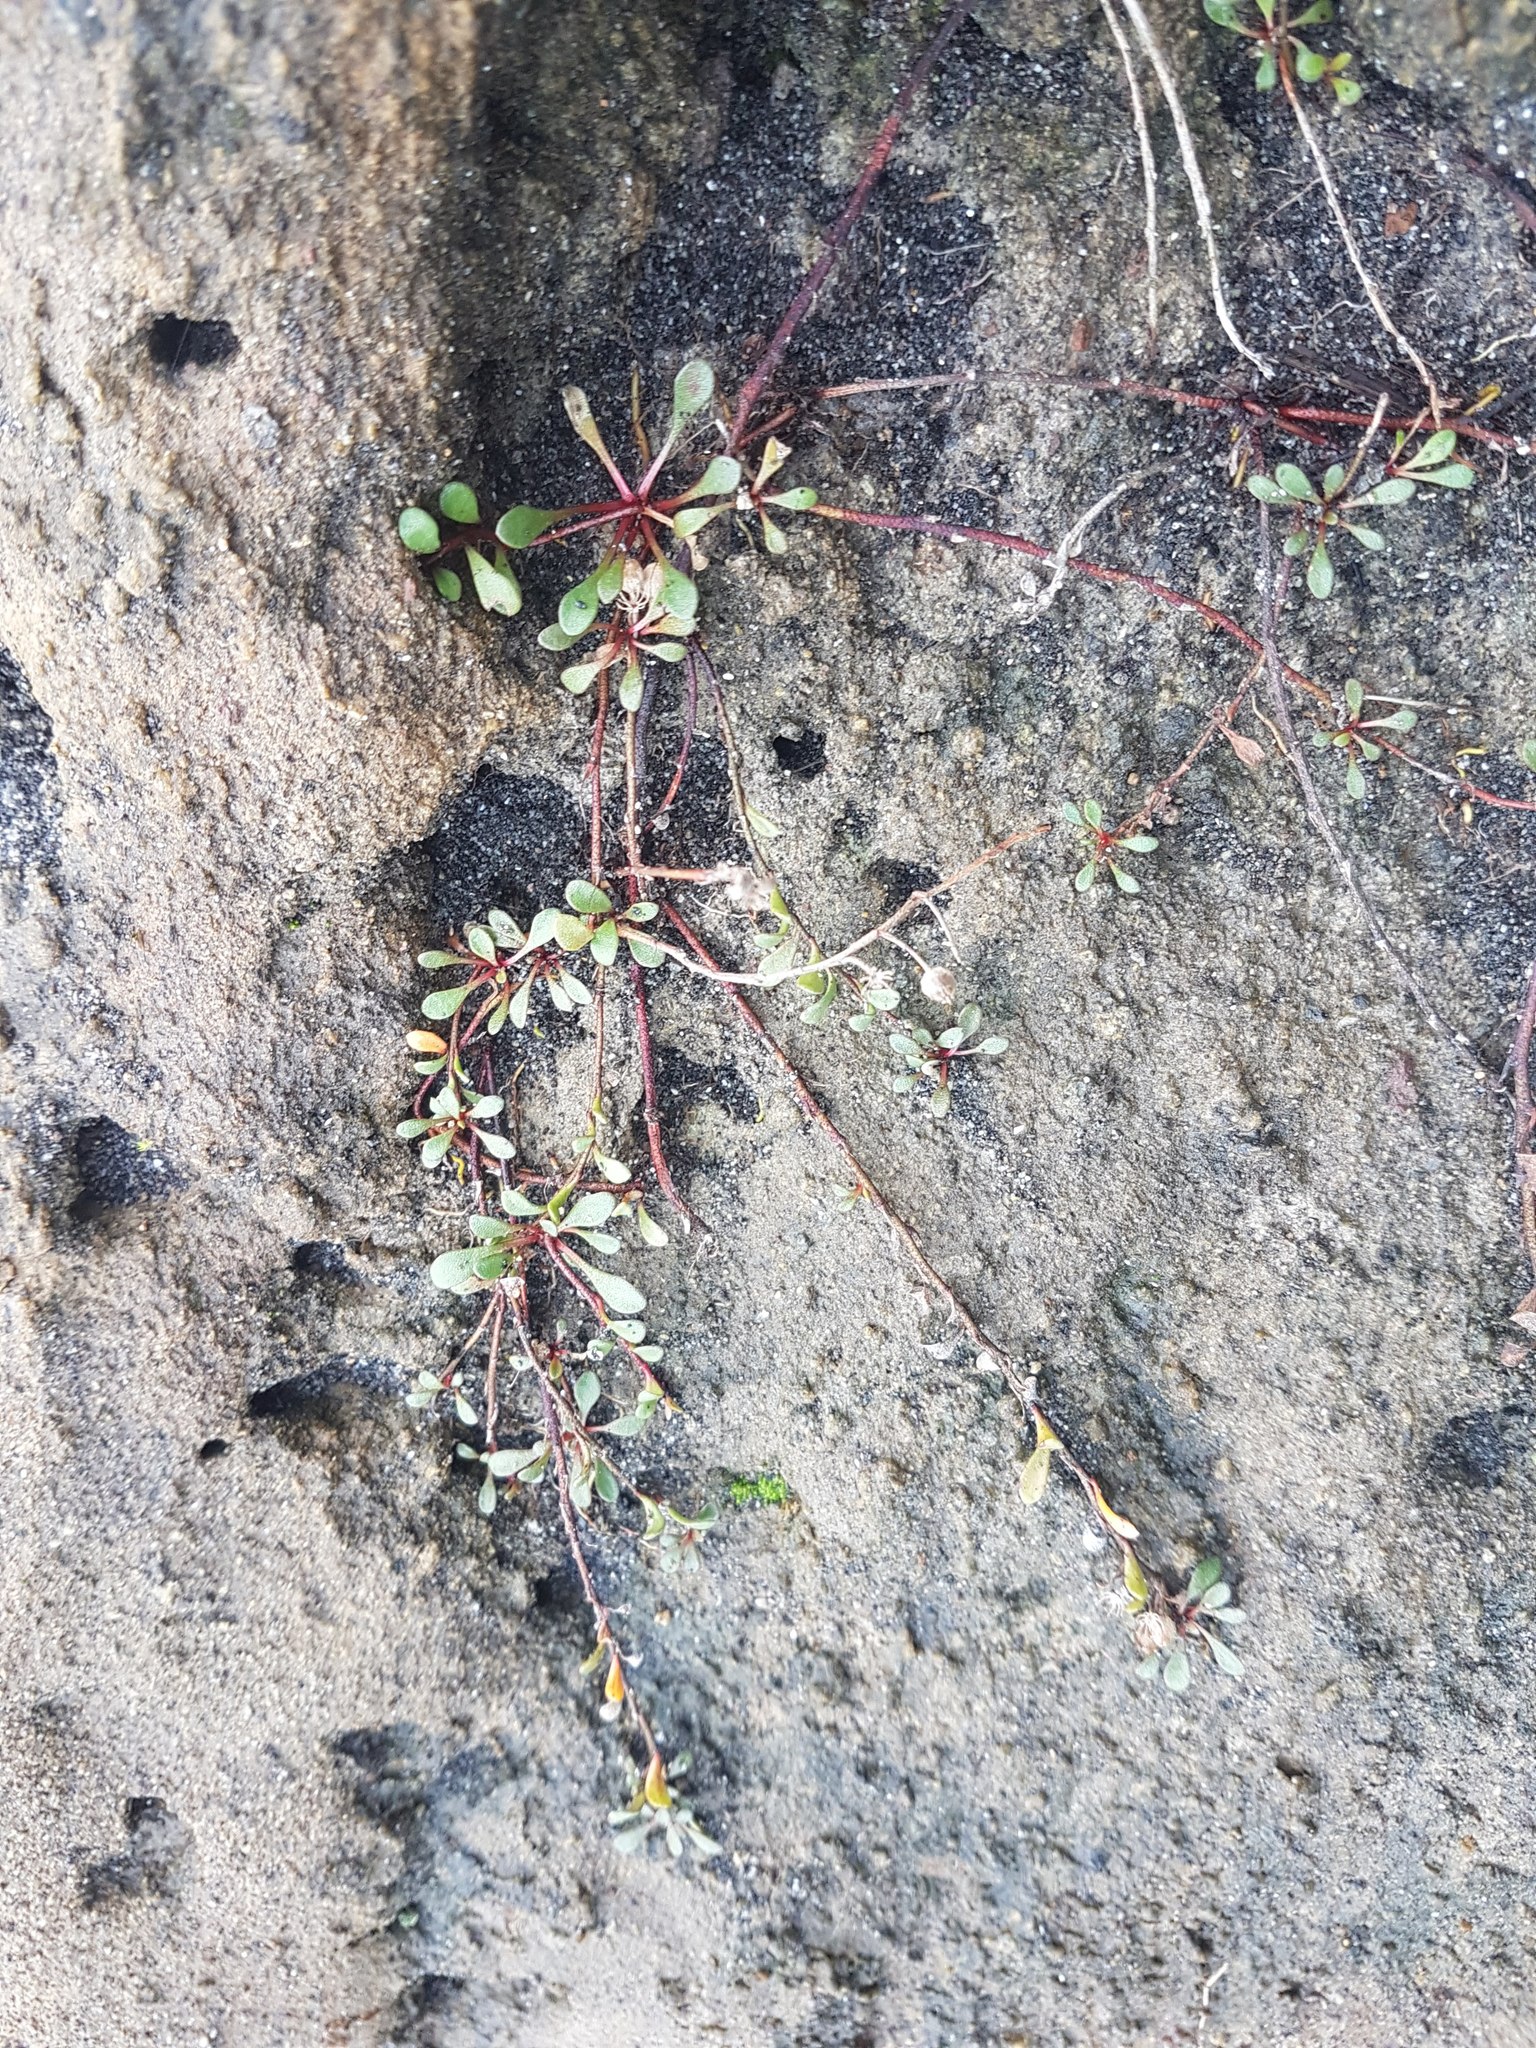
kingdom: Plantae
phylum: Tracheophyta
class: Magnoliopsida
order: Ericales
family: Primulaceae
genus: Samolus
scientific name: Samolus repens
